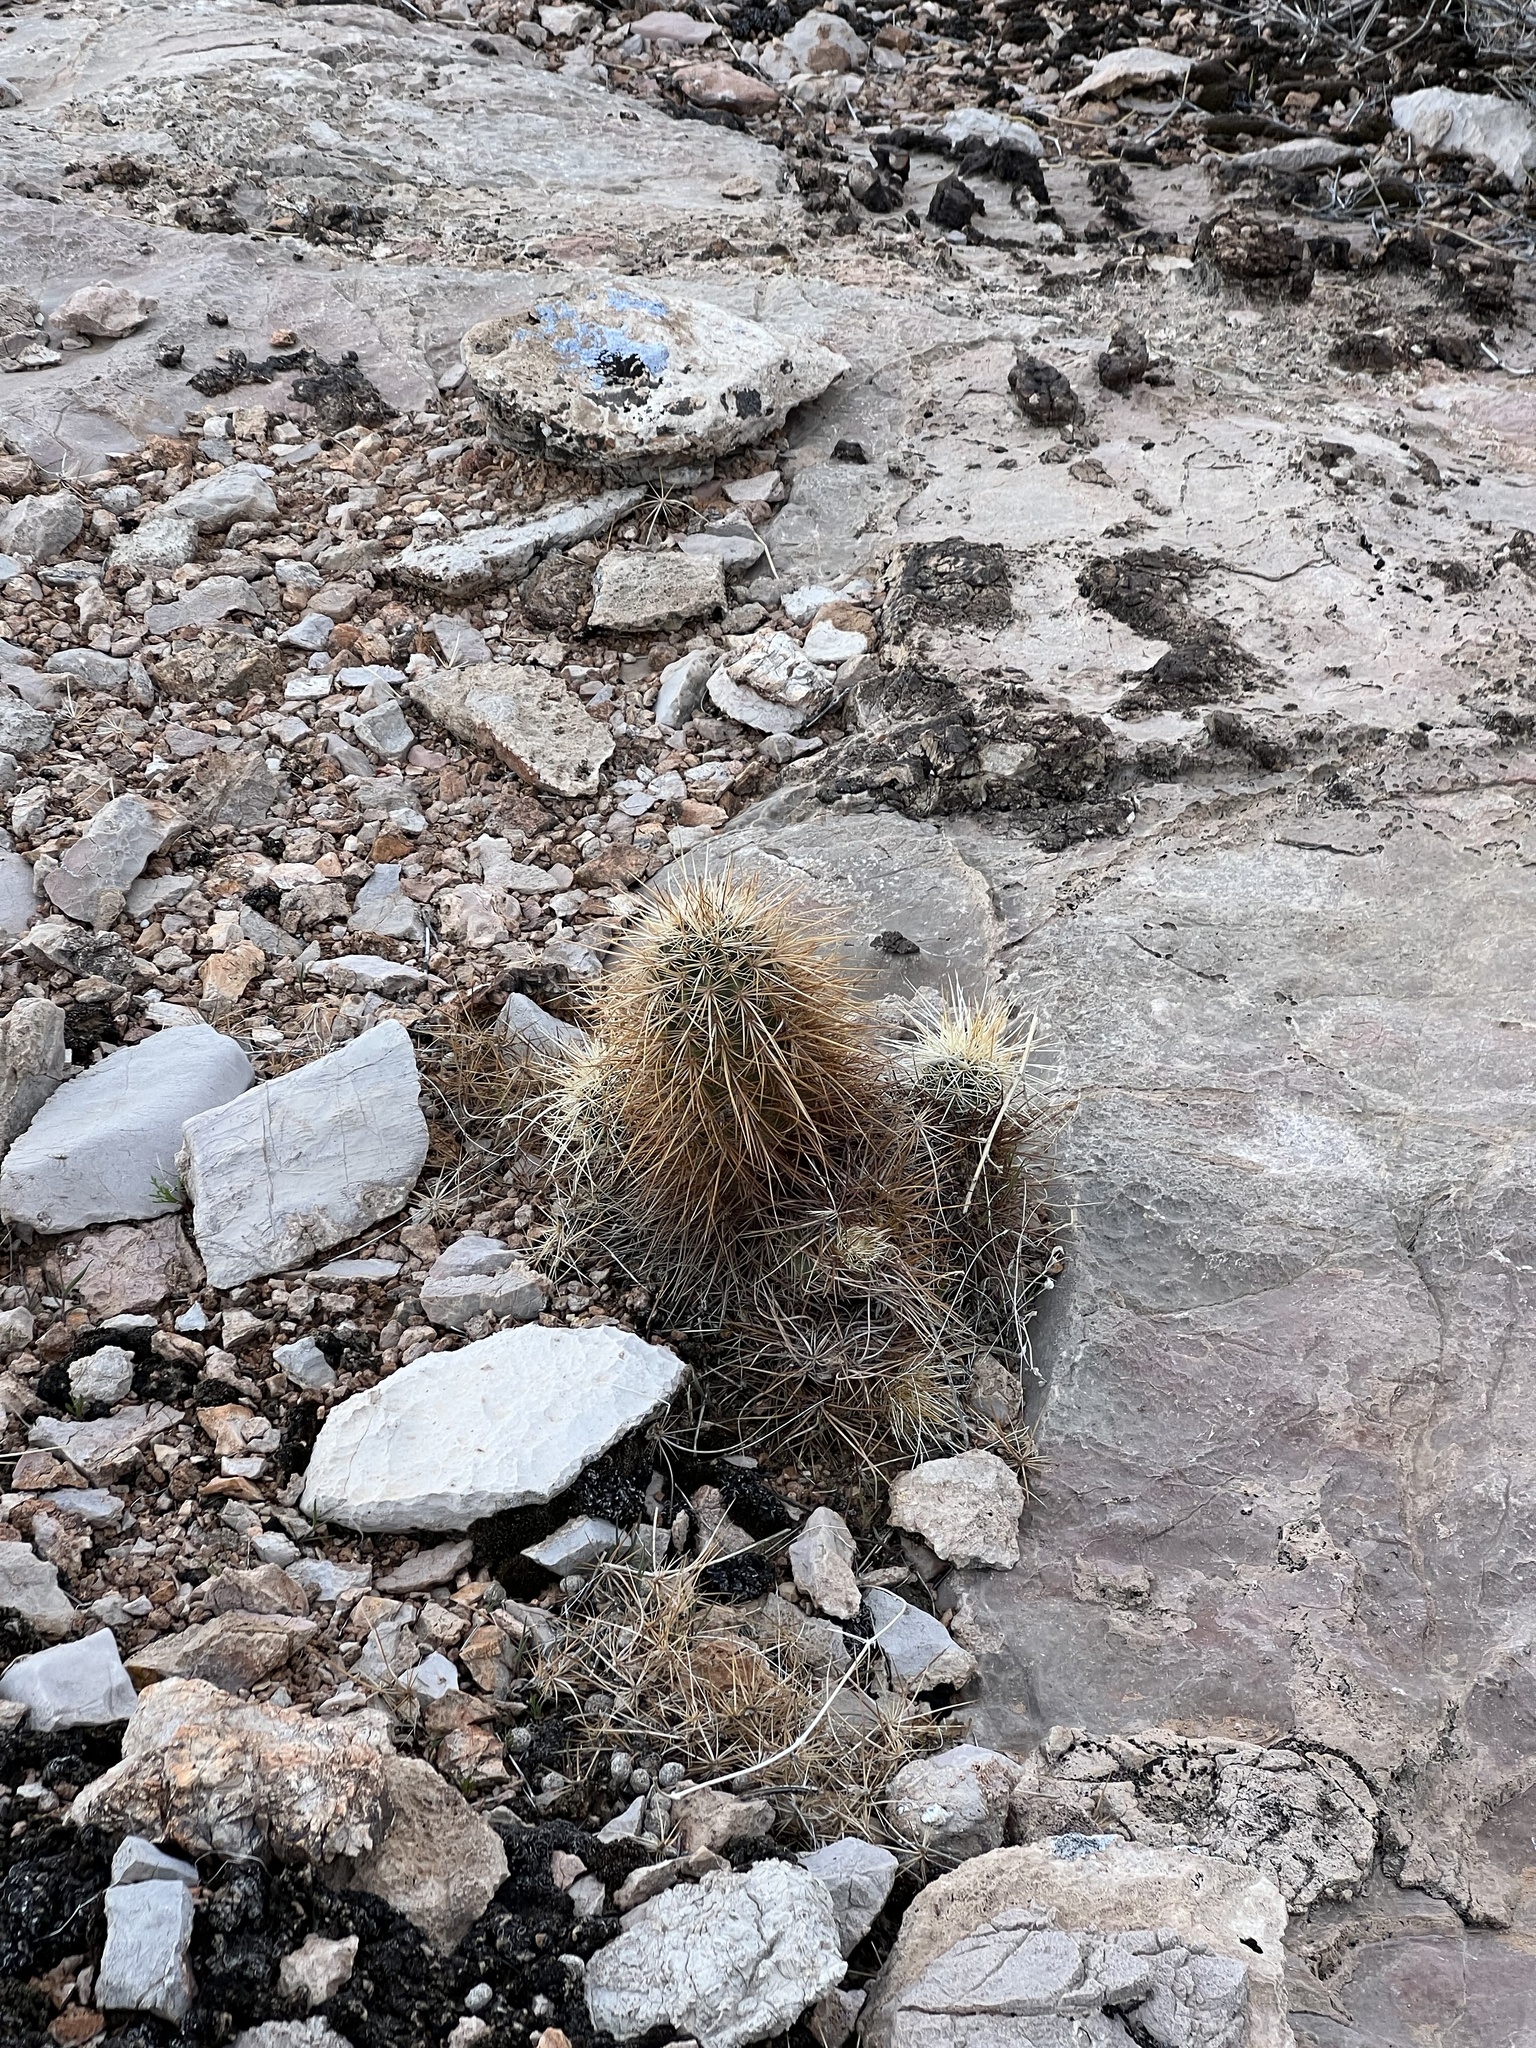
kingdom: Plantae
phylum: Tracheophyta
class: Magnoliopsida
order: Caryophyllales
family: Cactaceae
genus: Echinocereus
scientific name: Echinocereus engelmannii
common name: Engelmann's hedgehog cactus
